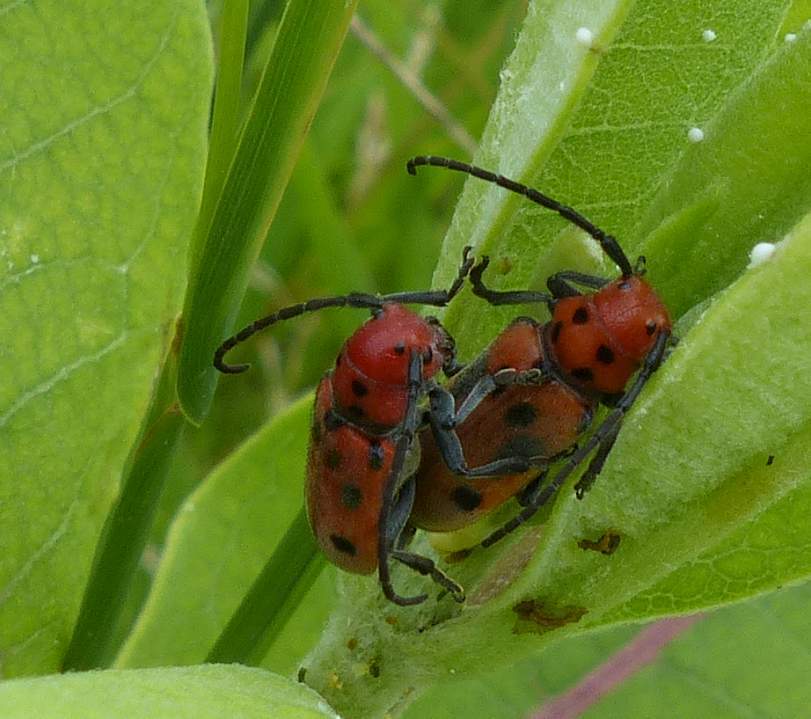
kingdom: Animalia
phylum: Arthropoda
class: Insecta
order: Coleoptera
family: Cerambycidae
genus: Tetraopes
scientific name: Tetraopes tetrophthalmus
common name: Red milkweed beetle
